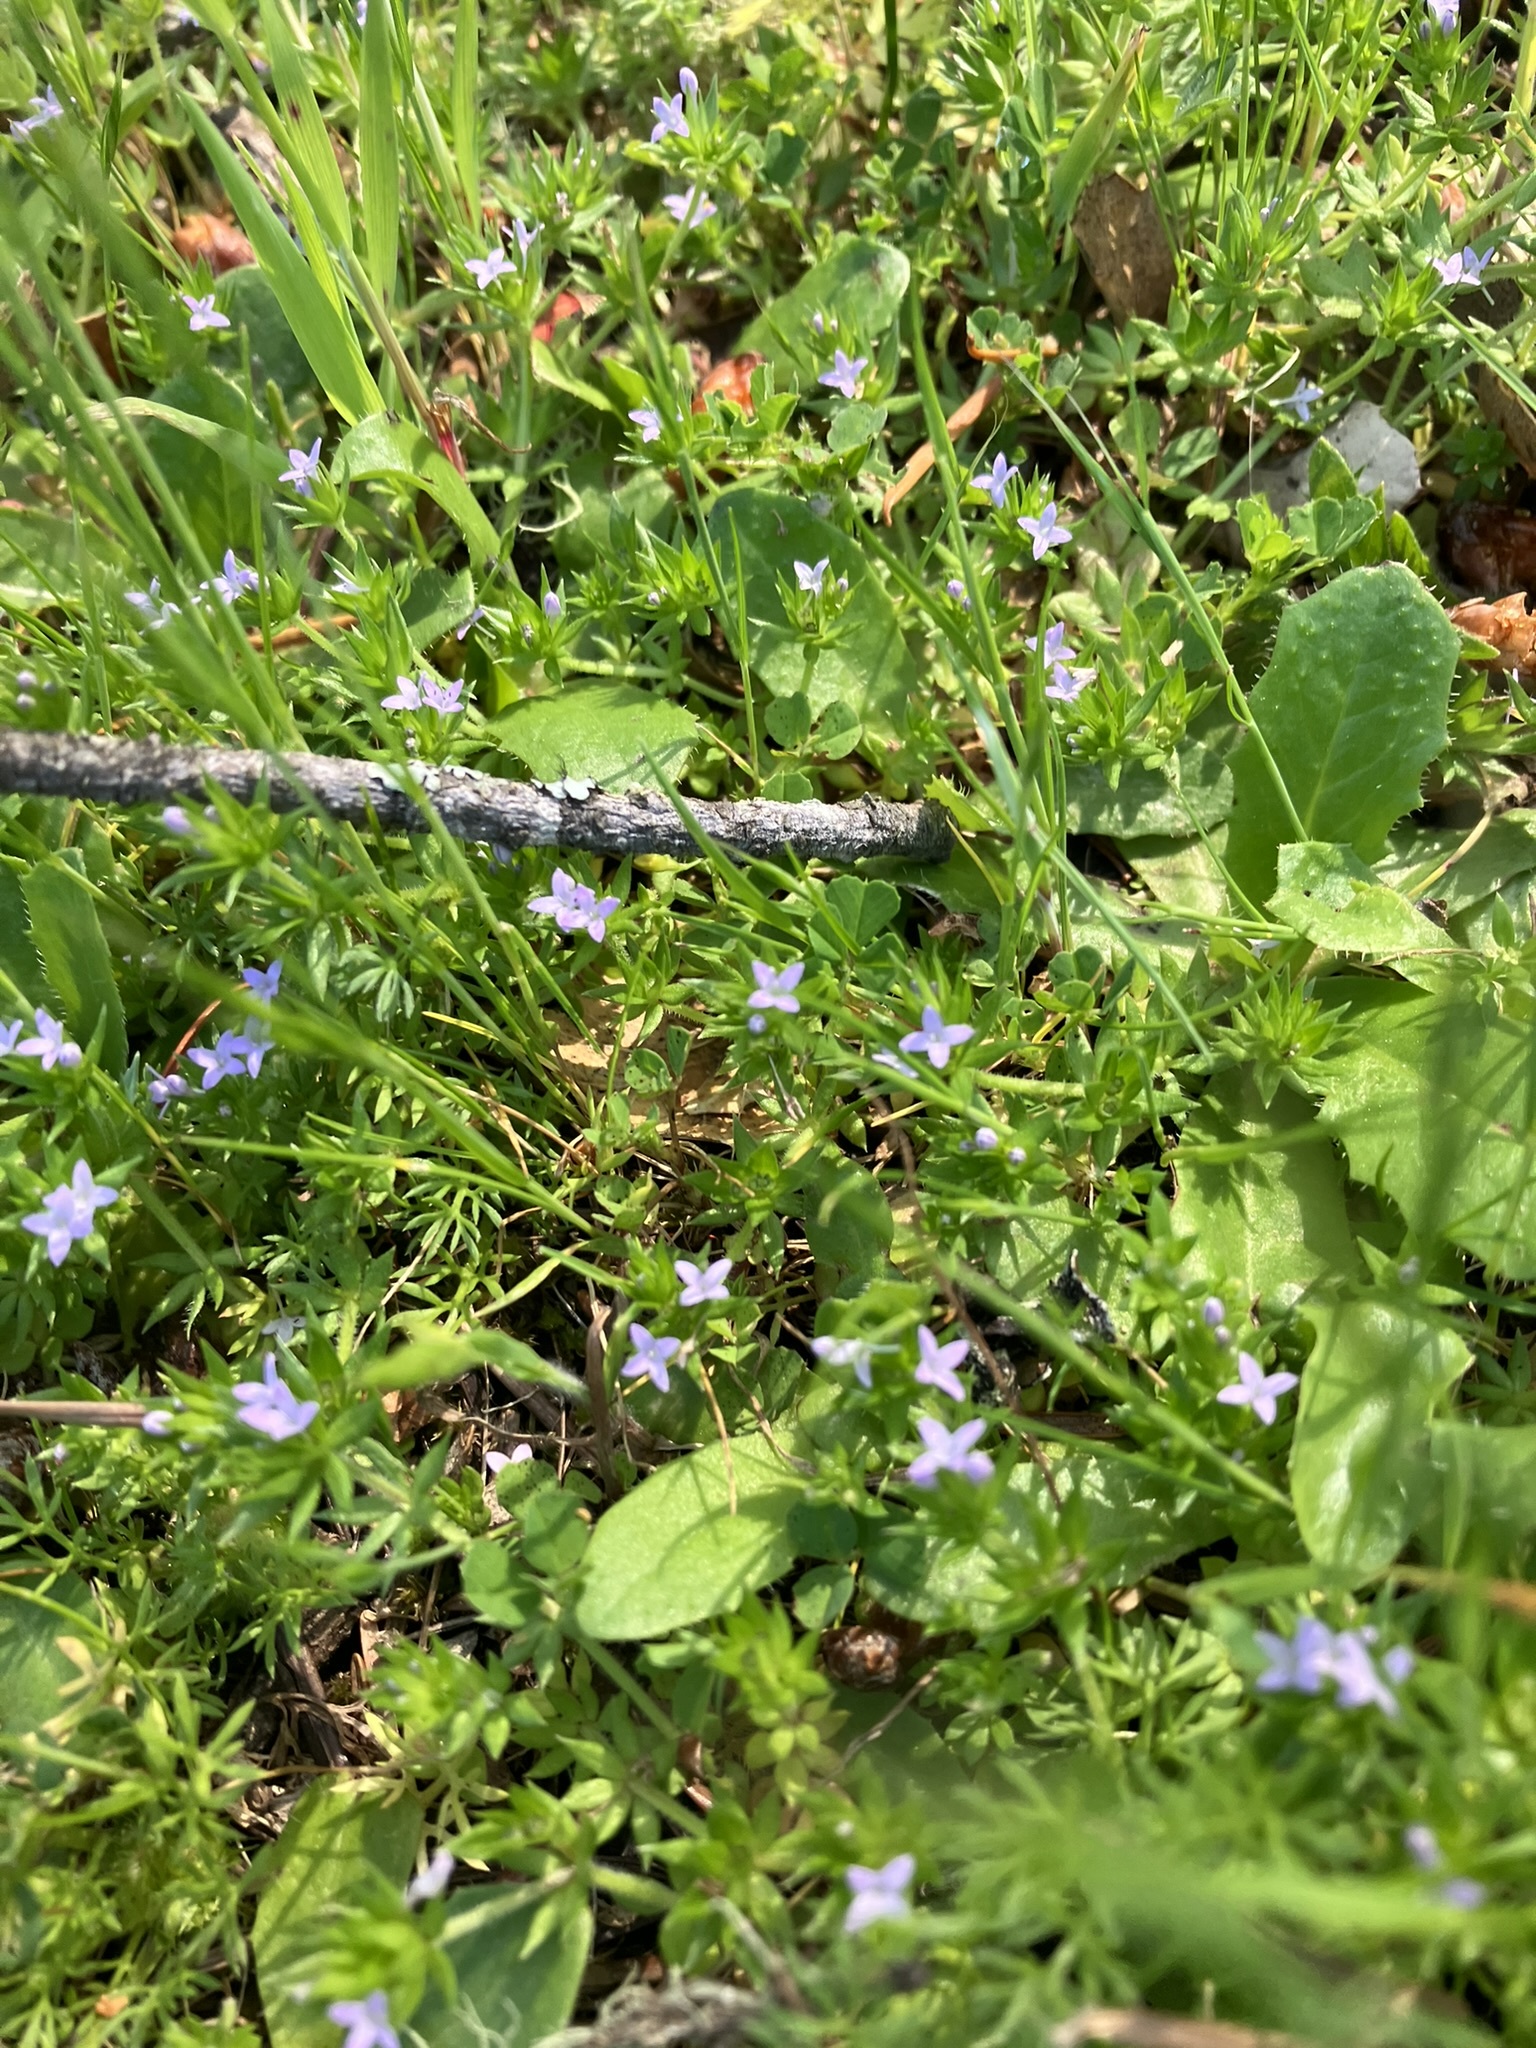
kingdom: Plantae
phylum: Tracheophyta
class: Magnoliopsida
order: Gentianales
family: Rubiaceae
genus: Sherardia
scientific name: Sherardia arvensis
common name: Field madder
